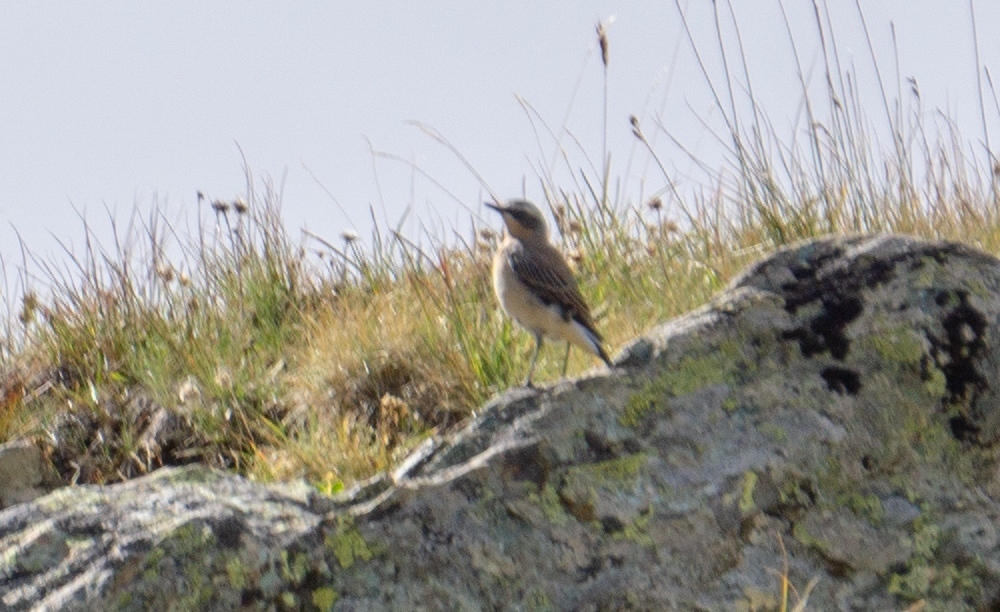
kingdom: Animalia
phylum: Chordata
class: Aves
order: Passeriformes
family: Muscicapidae
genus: Oenanthe
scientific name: Oenanthe oenanthe
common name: Northern wheatear
